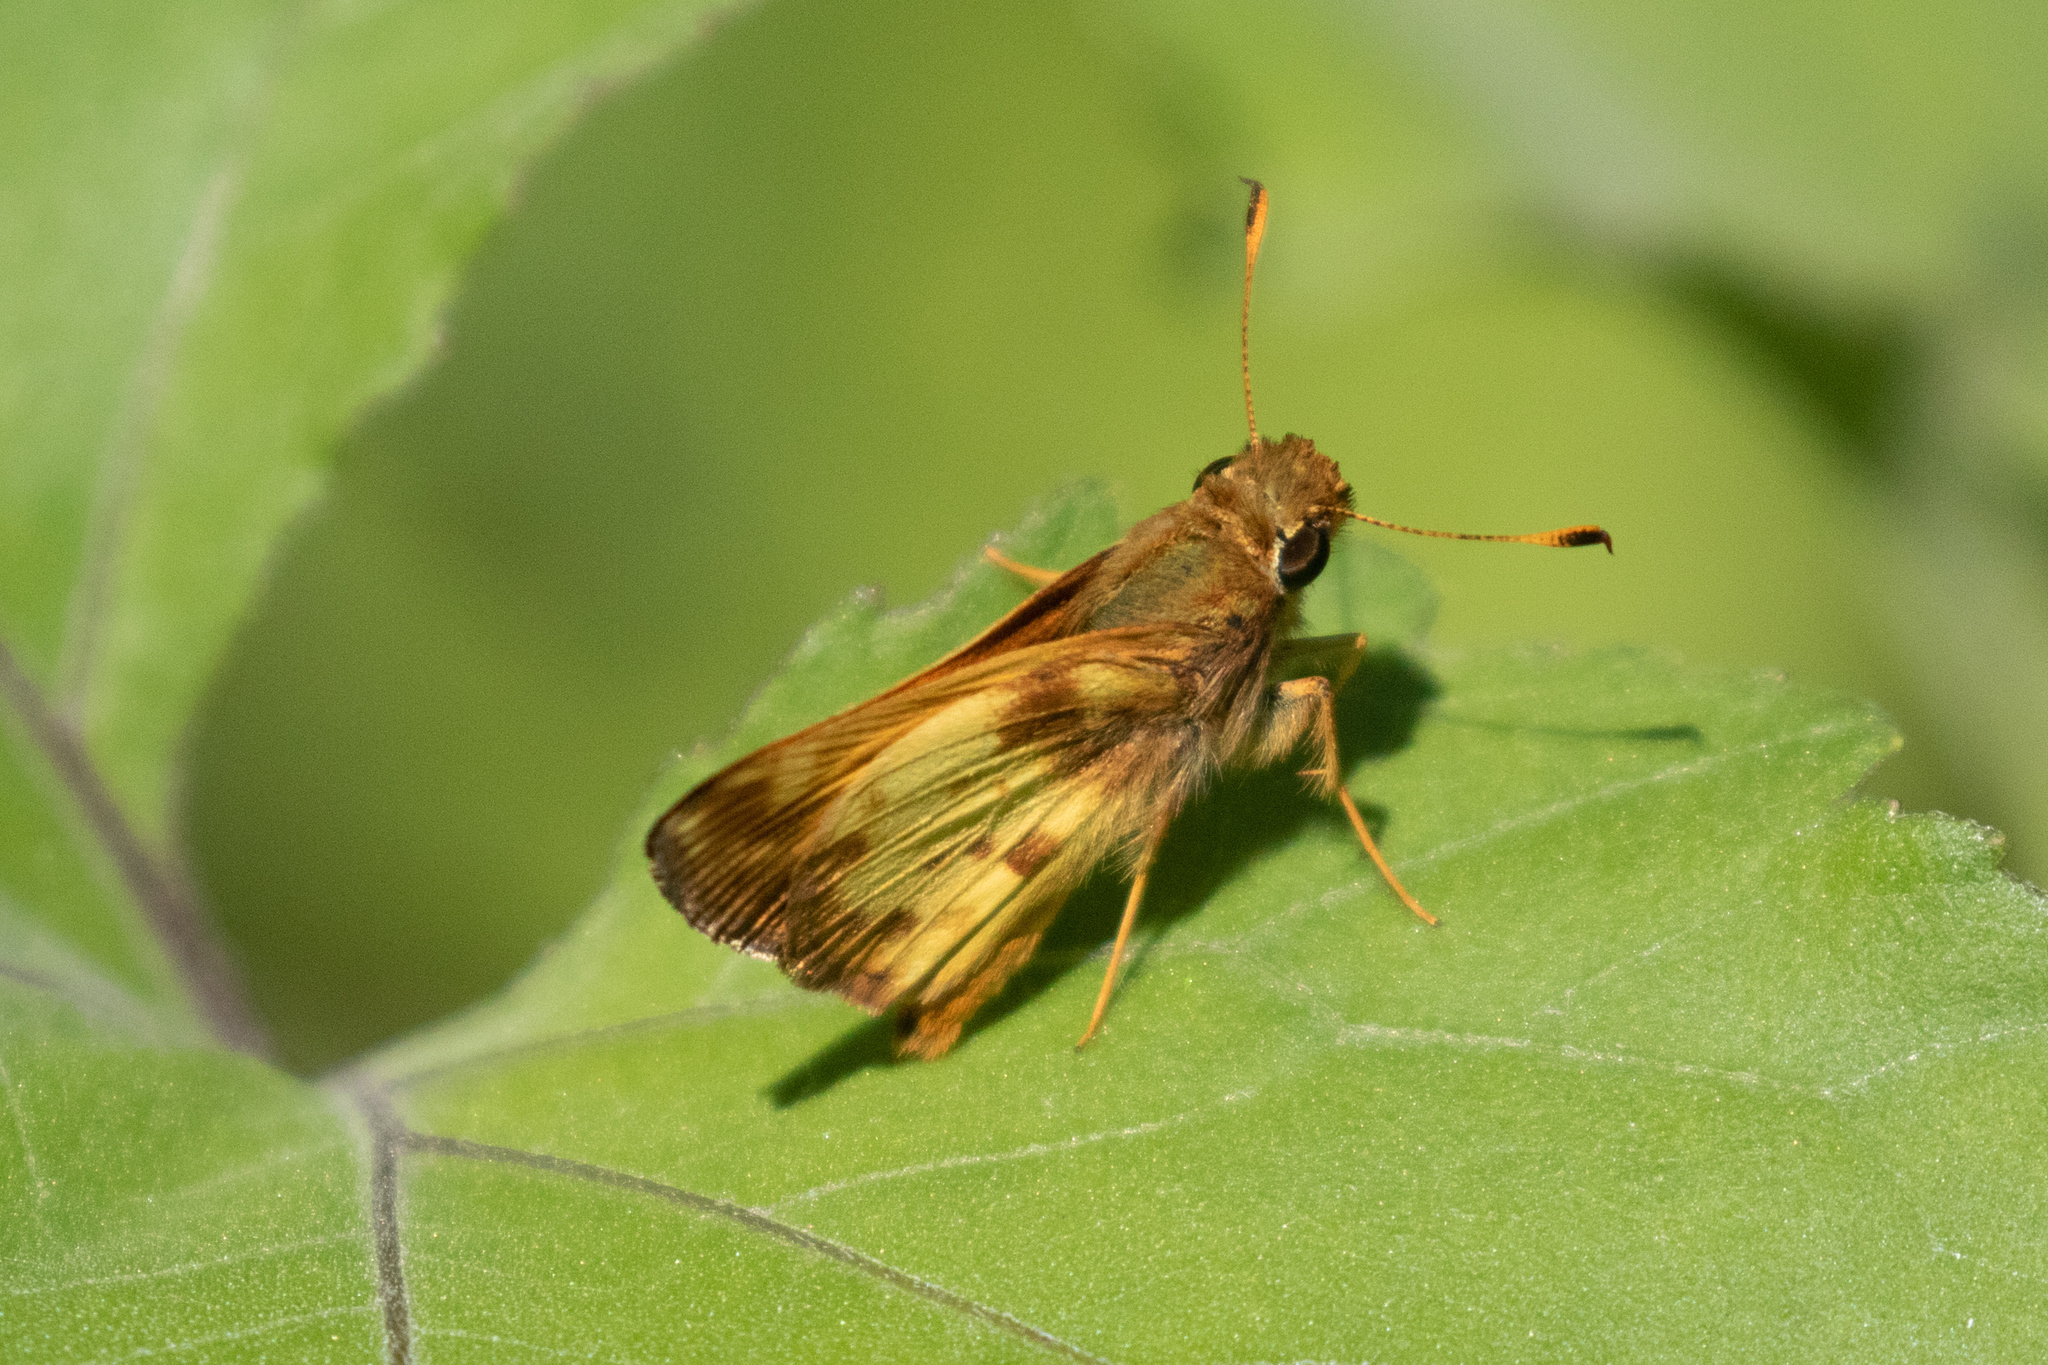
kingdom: Animalia
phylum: Arthropoda
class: Insecta
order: Lepidoptera
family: Hesperiidae
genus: Lon
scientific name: Lon zabulon
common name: Zabulon skipper
